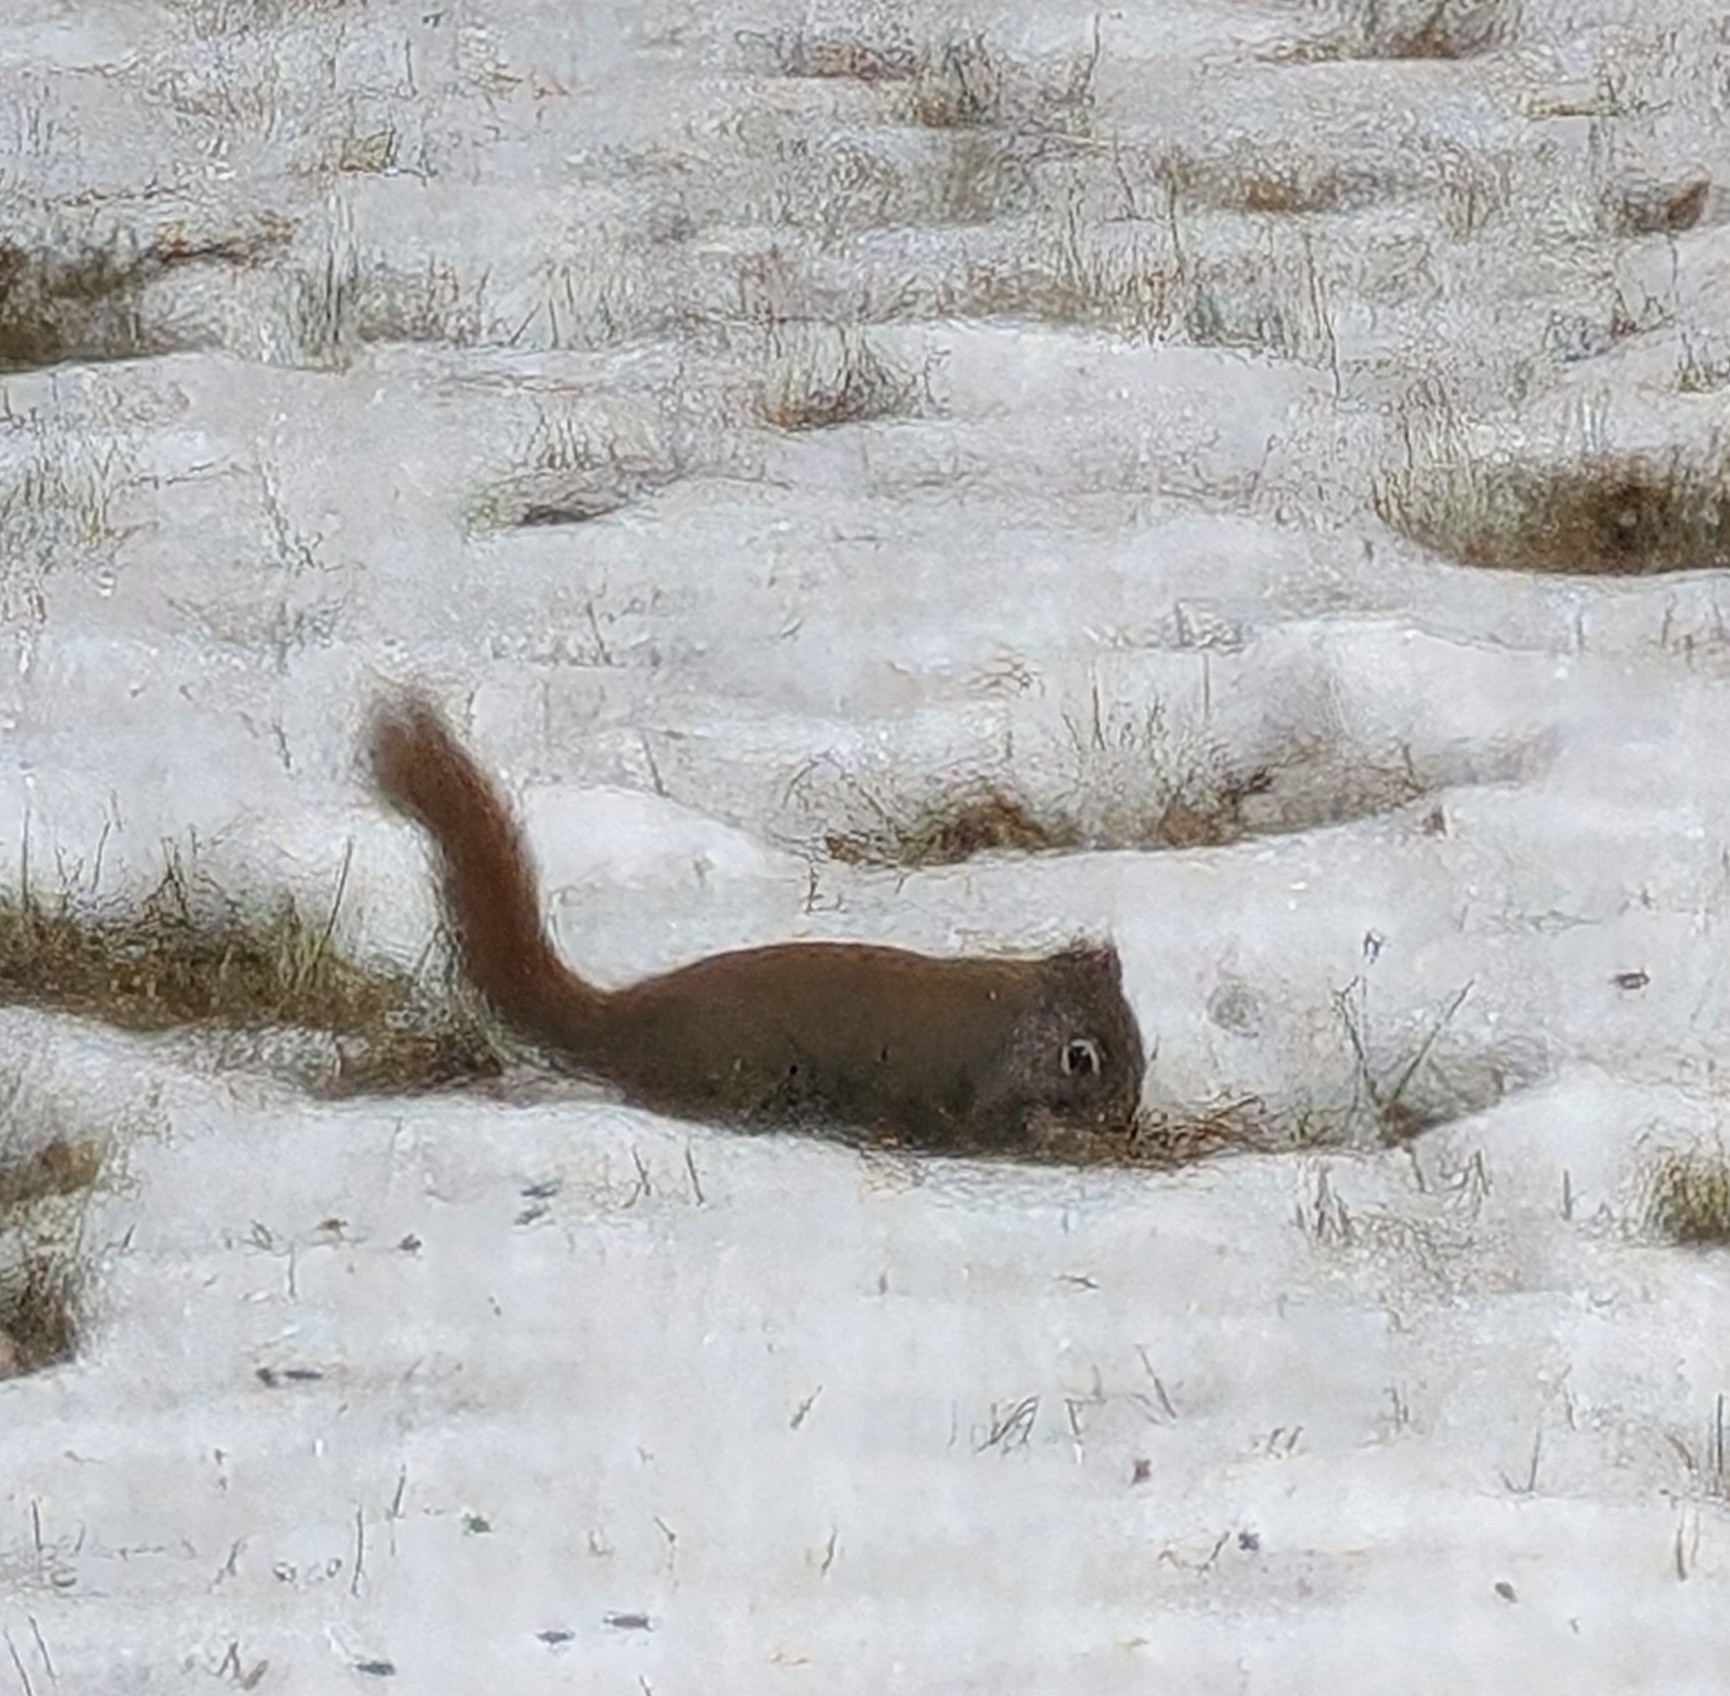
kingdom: Animalia
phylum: Chordata
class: Mammalia
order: Rodentia
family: Sciuridae
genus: Tamiasciurus
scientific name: Tamiasciurus hudsonicus
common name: Red squirrel
